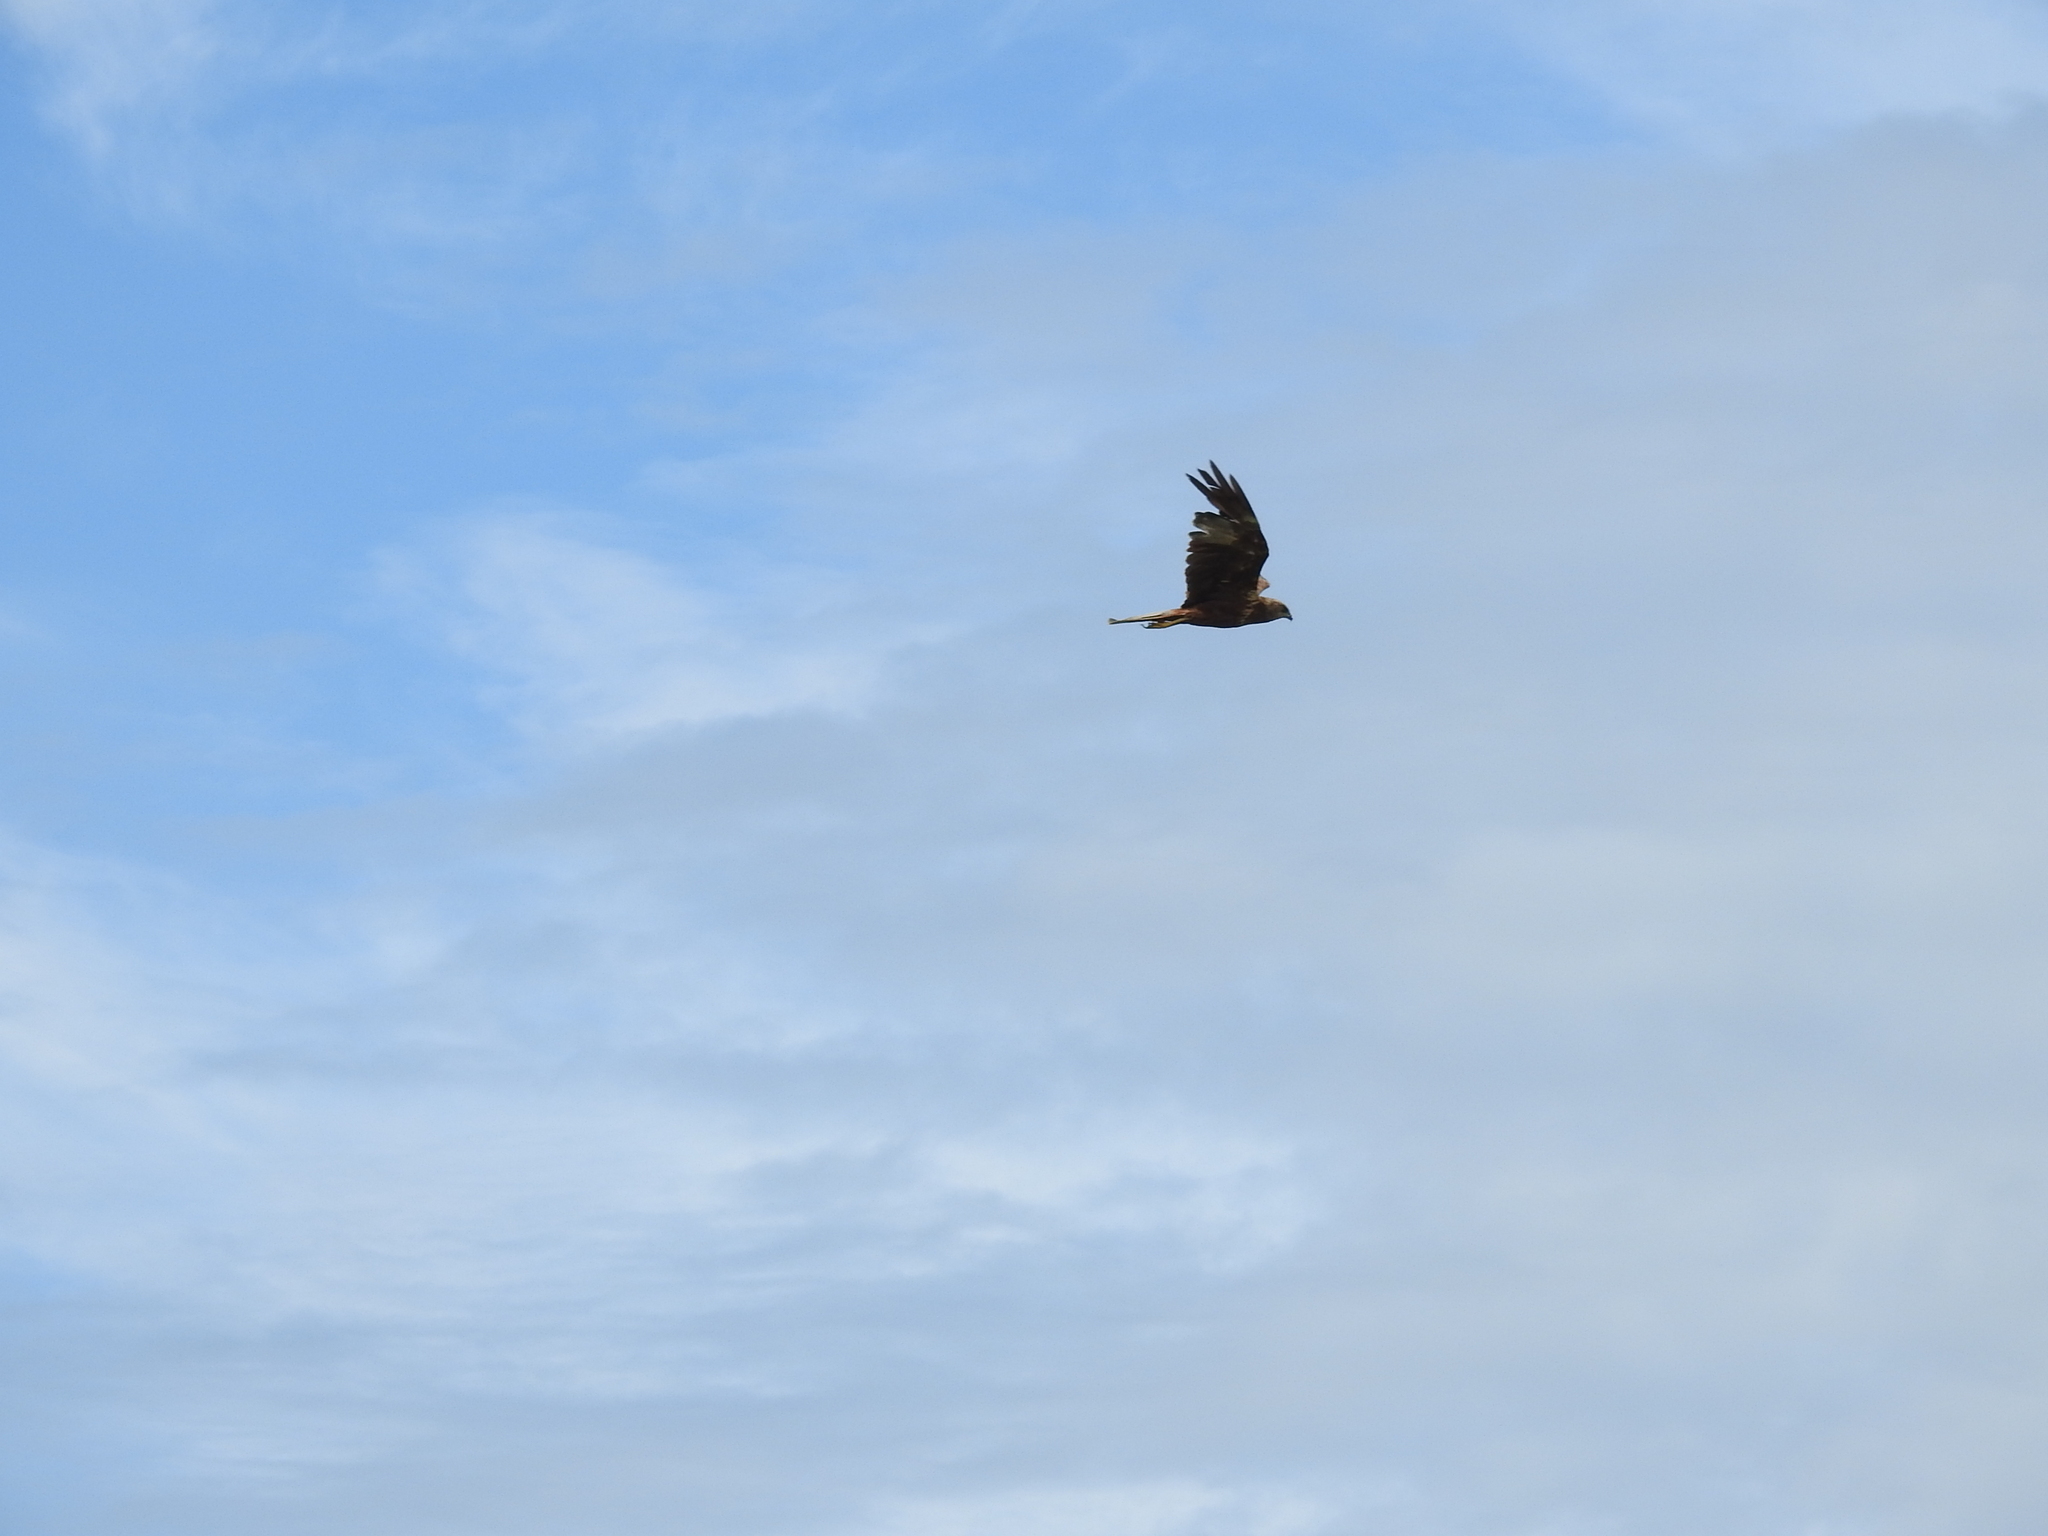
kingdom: Animalia
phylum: Chordata
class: Aves
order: Accipitriformes
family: Accipitridae
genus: Circus
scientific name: Circus aeruginosus
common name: Western marsh harrier
